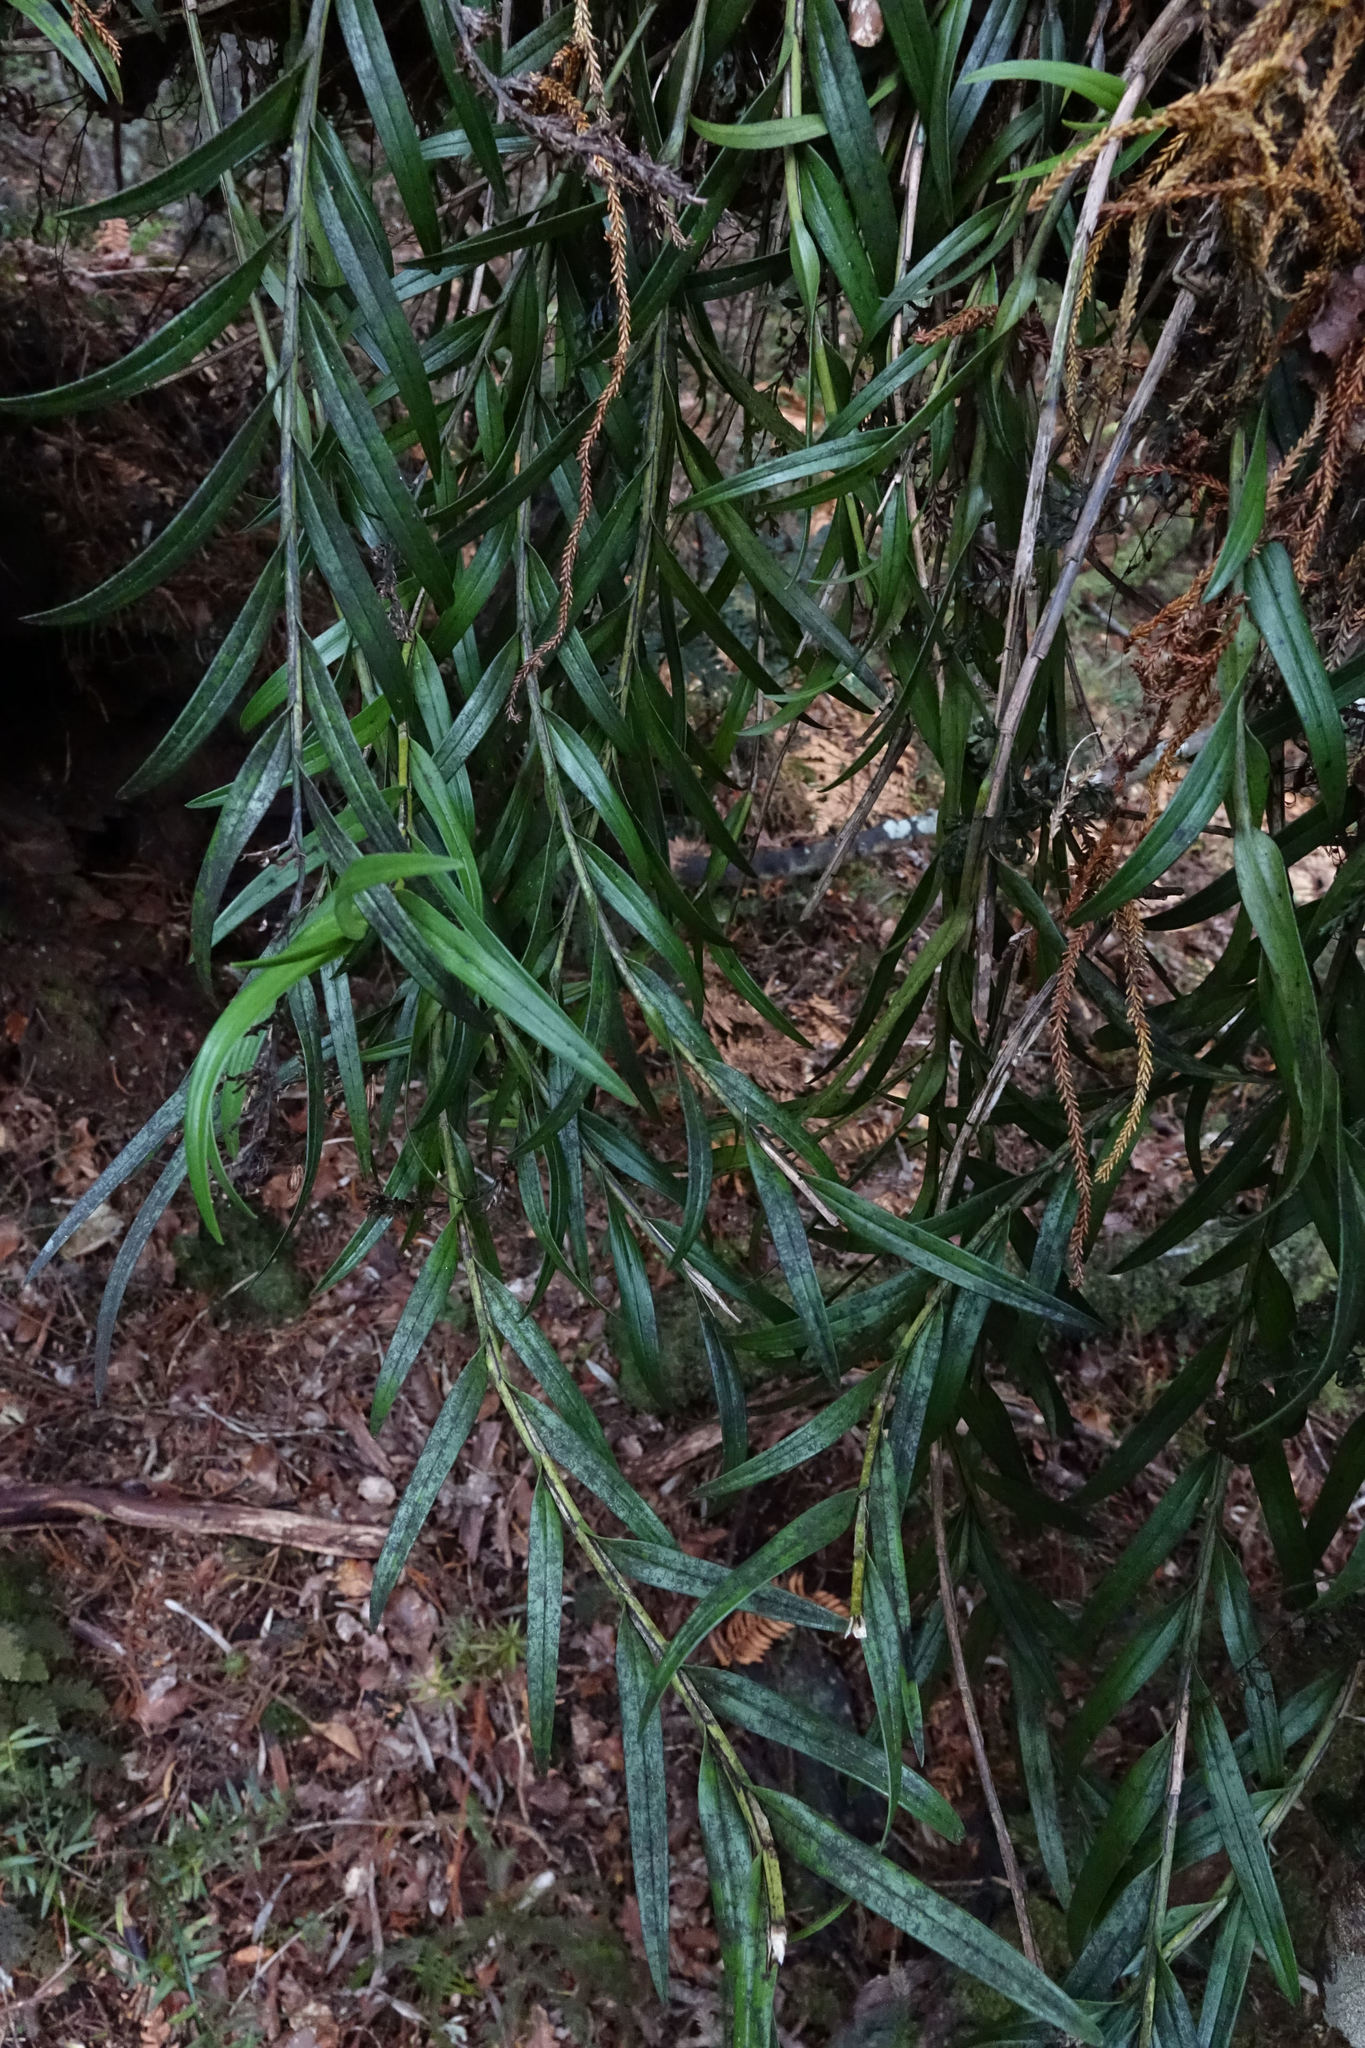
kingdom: Plantae
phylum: Tracheophyta
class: Liliopsida
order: Asparagales
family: Orchidaceae
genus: Earina
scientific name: Earina autumnalis
